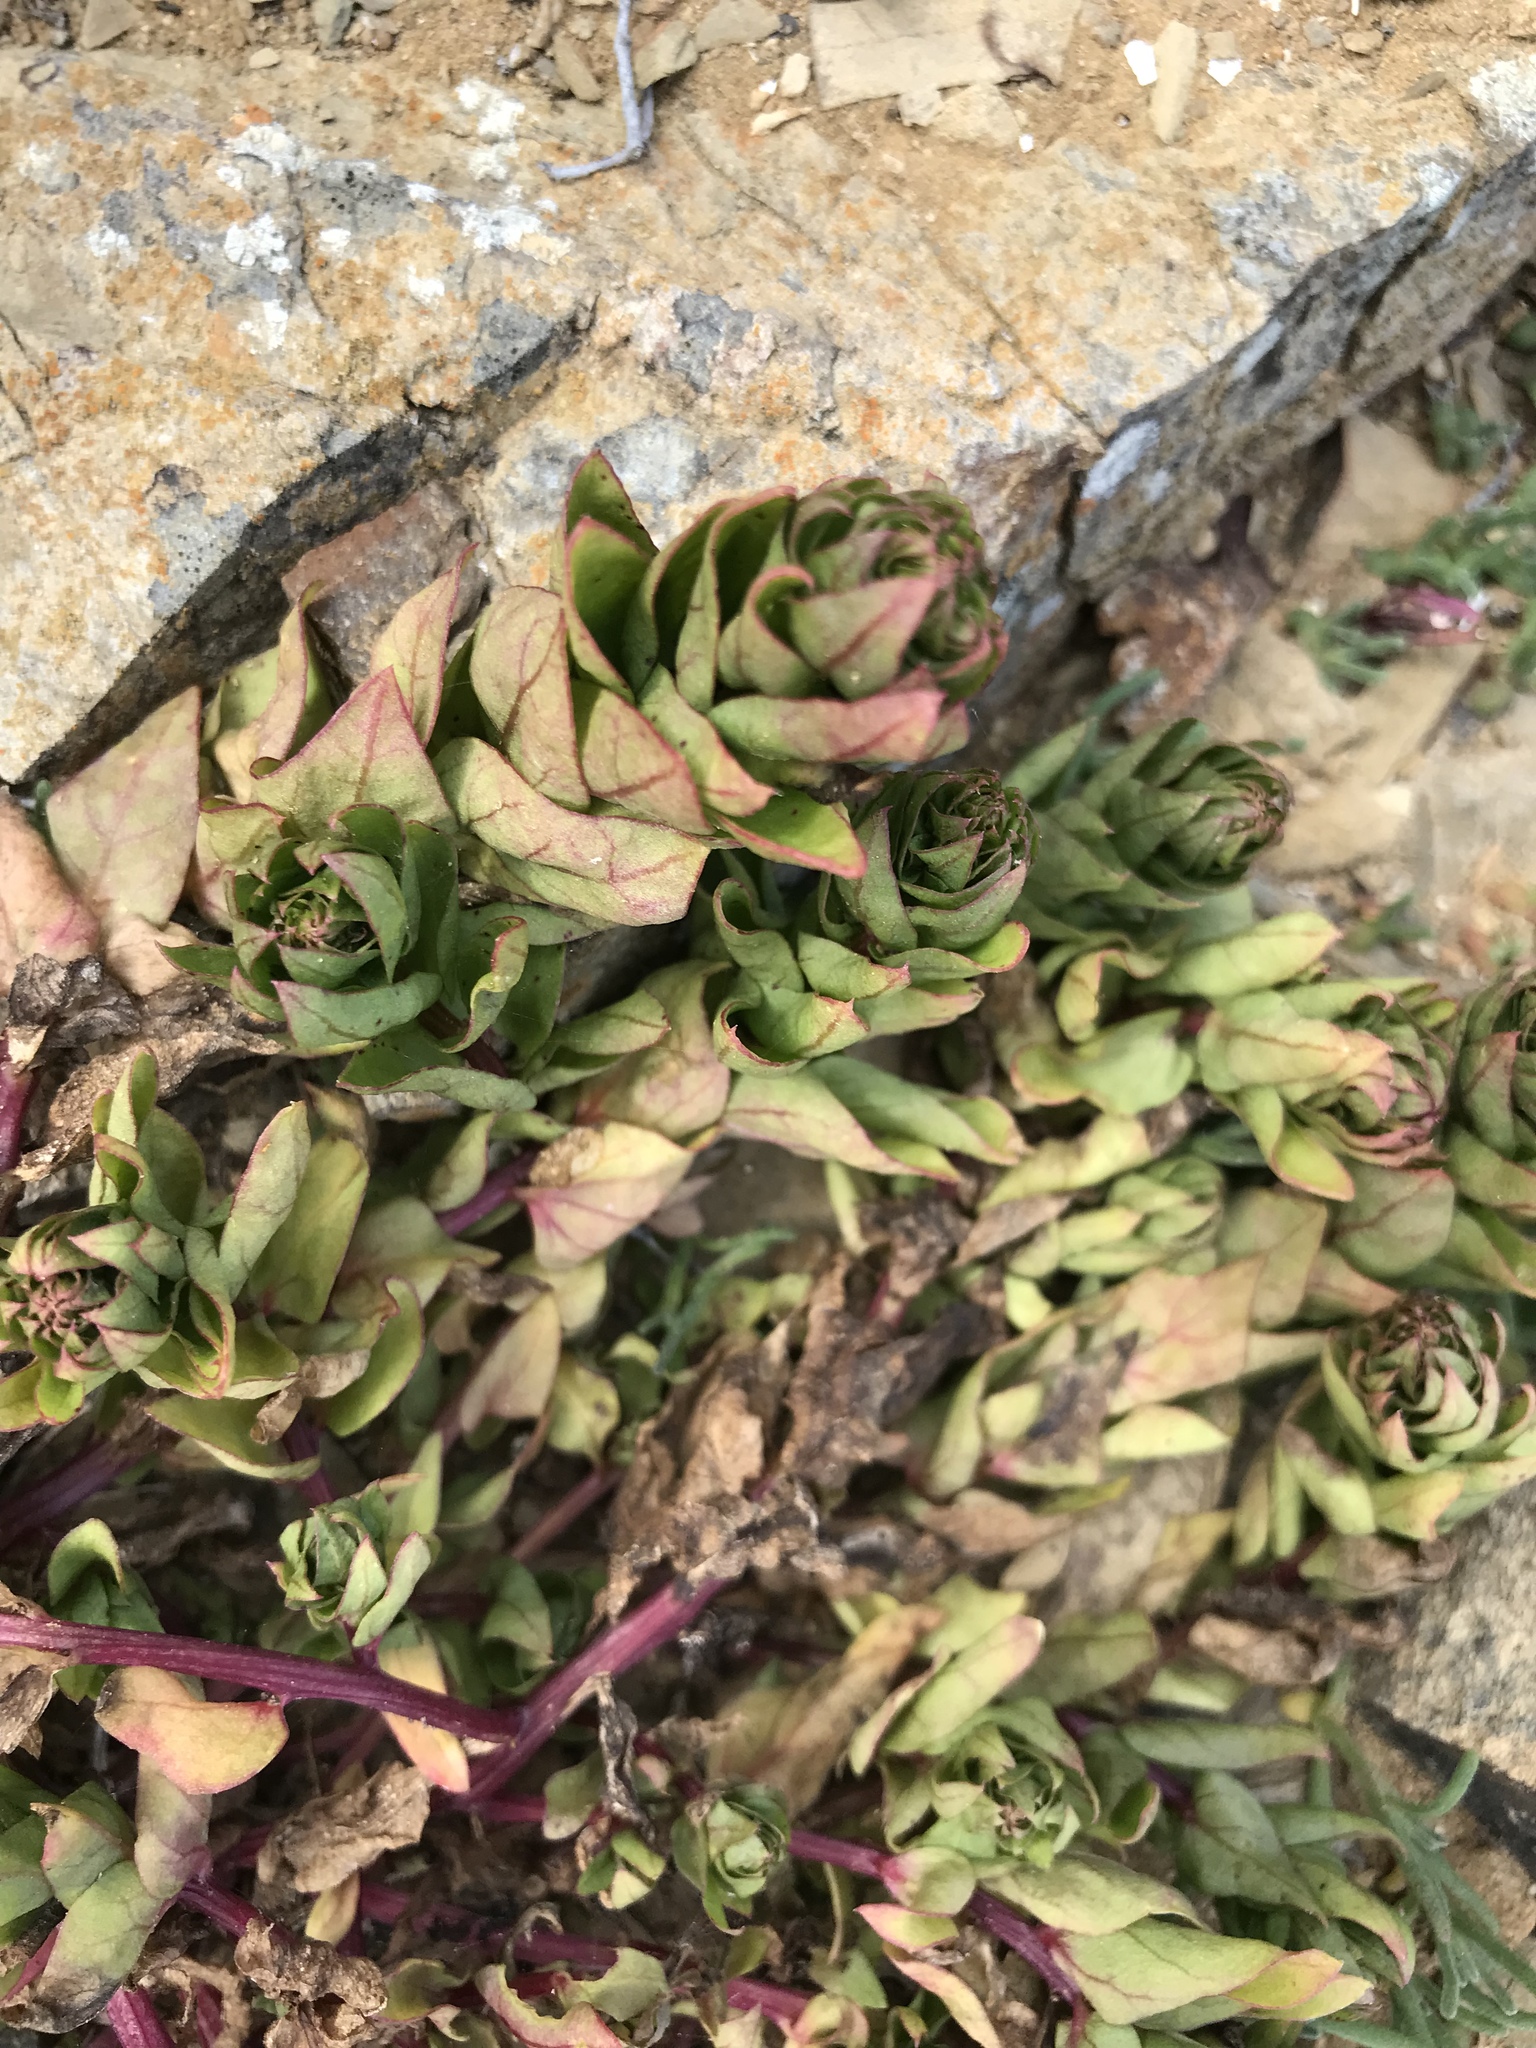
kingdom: Plantae
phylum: Tracheophyta
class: Magnoliopsida
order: Caryophyllales
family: Amaranthaceae
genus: Aphanisma
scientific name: Aphanisma blitoides
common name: Aphanisma
